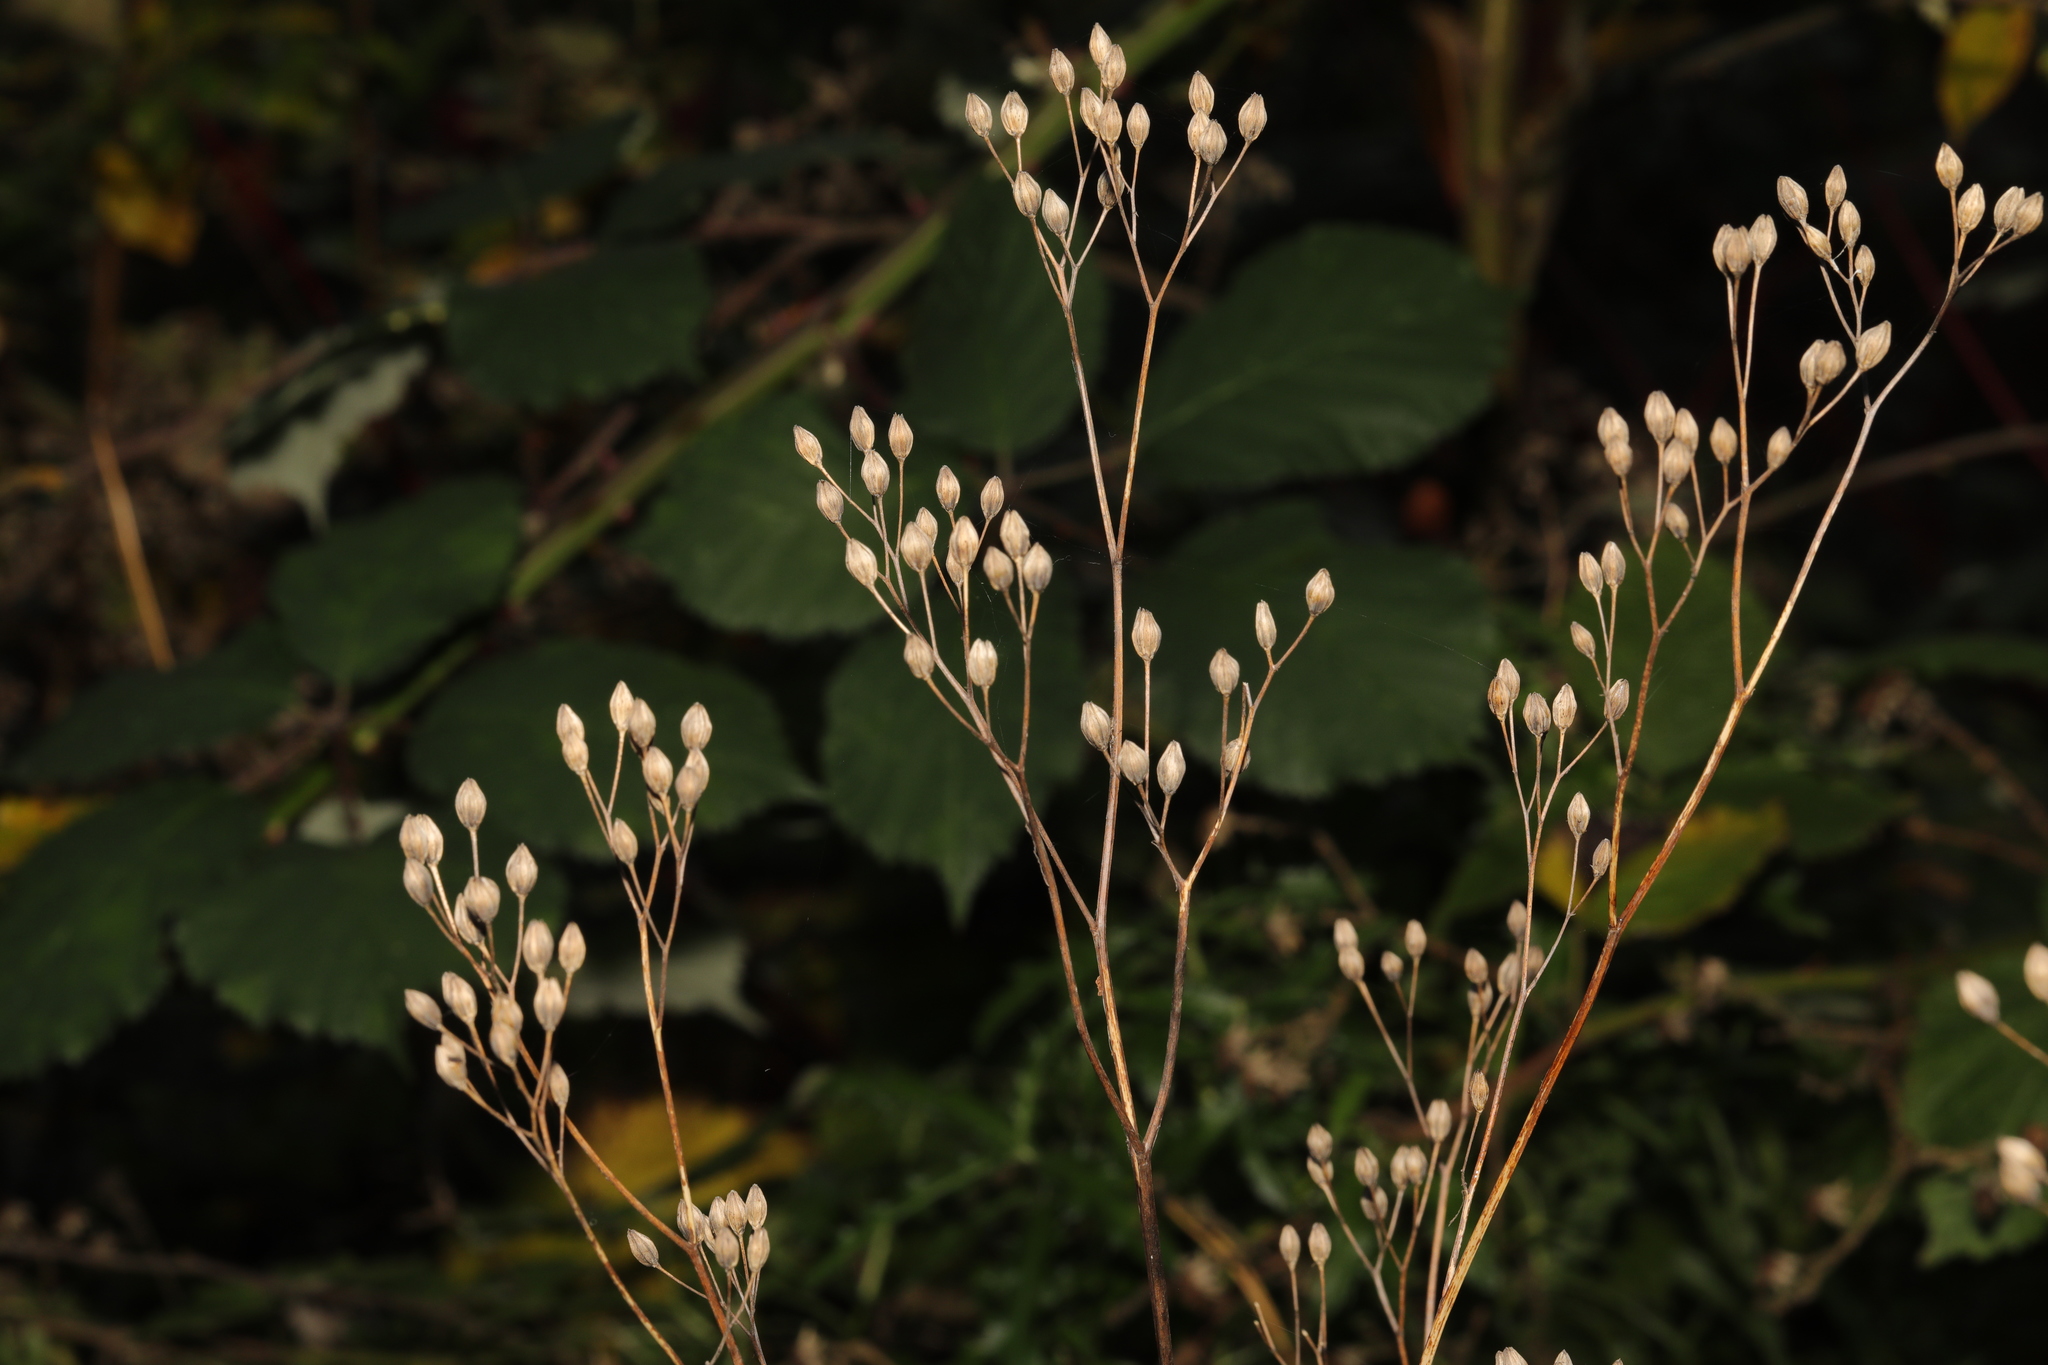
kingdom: Plantae
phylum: Tracheophyta
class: Magnoliopsida
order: Asterales
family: Asteraceae
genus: Lapsana
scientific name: Lapsana communis
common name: Nipplewort
